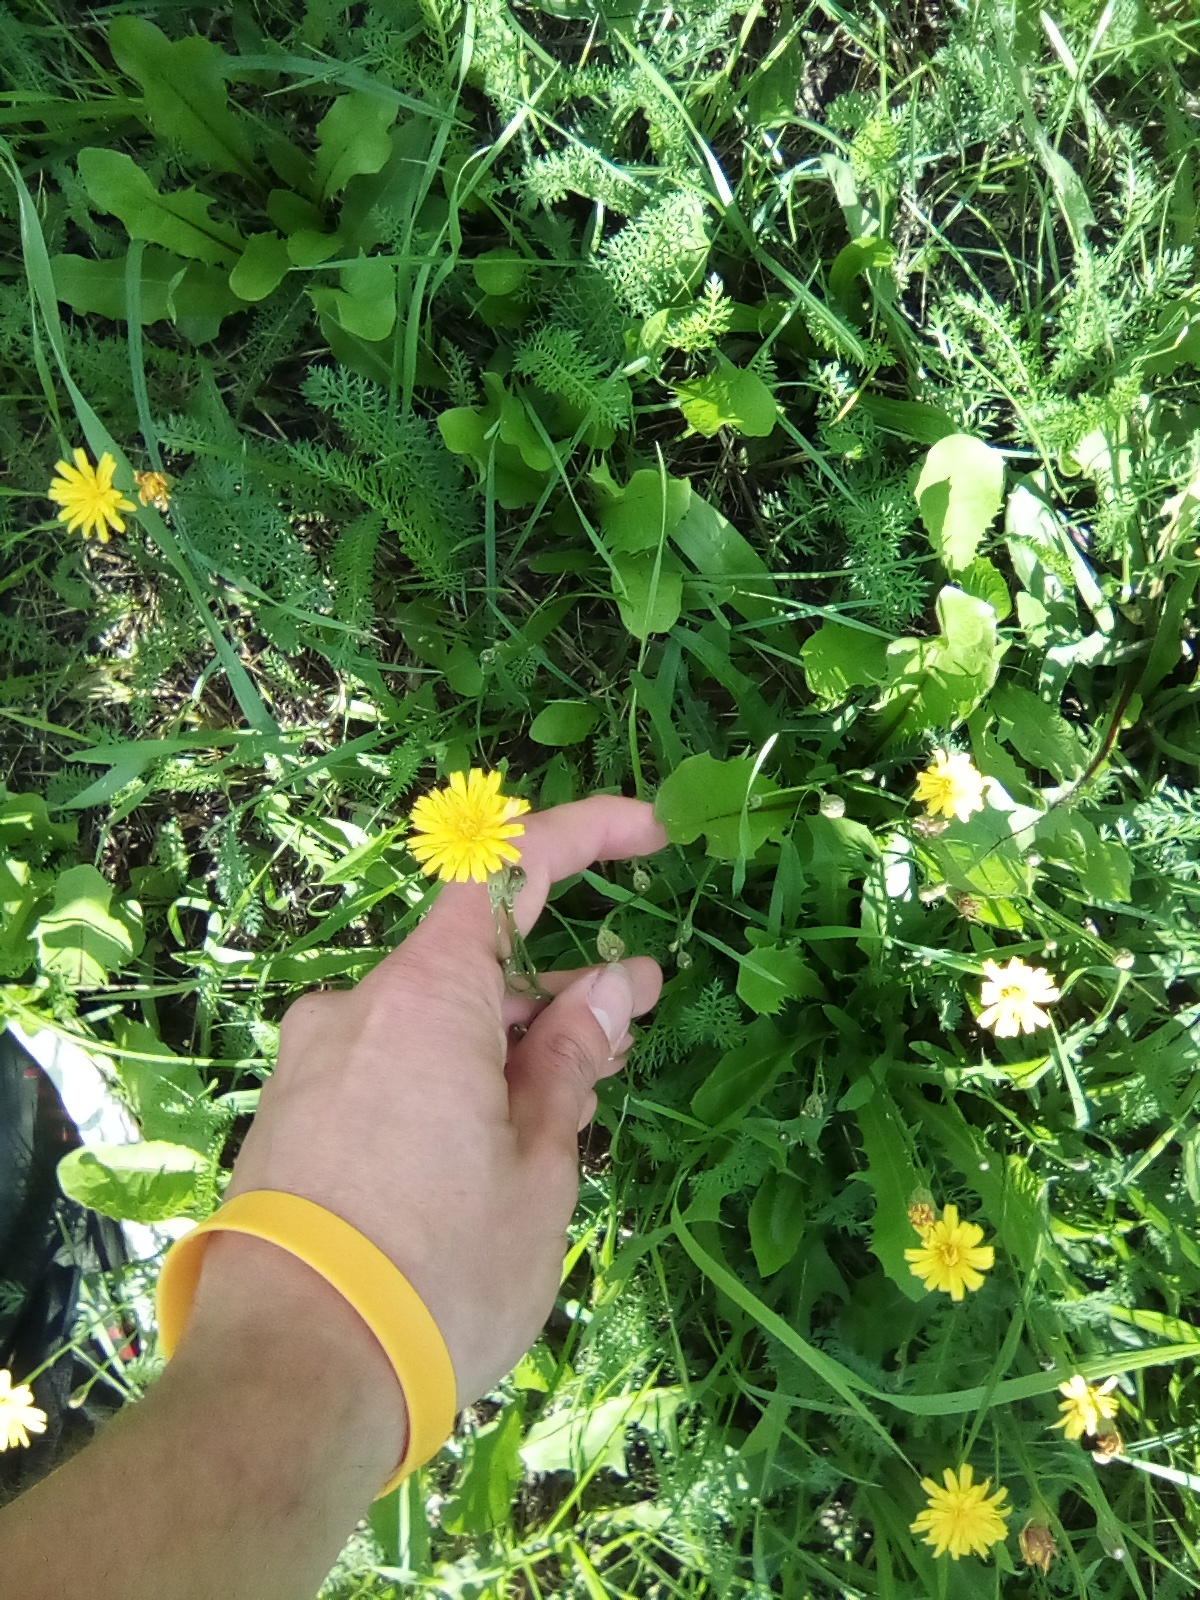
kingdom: Plantae
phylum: Tracheophyta
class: Magnoliopsida
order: Asterales
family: Asteraceae
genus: Scorzoneroides
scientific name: Scorzoneroides autumnalis
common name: Autumn hawkbit
